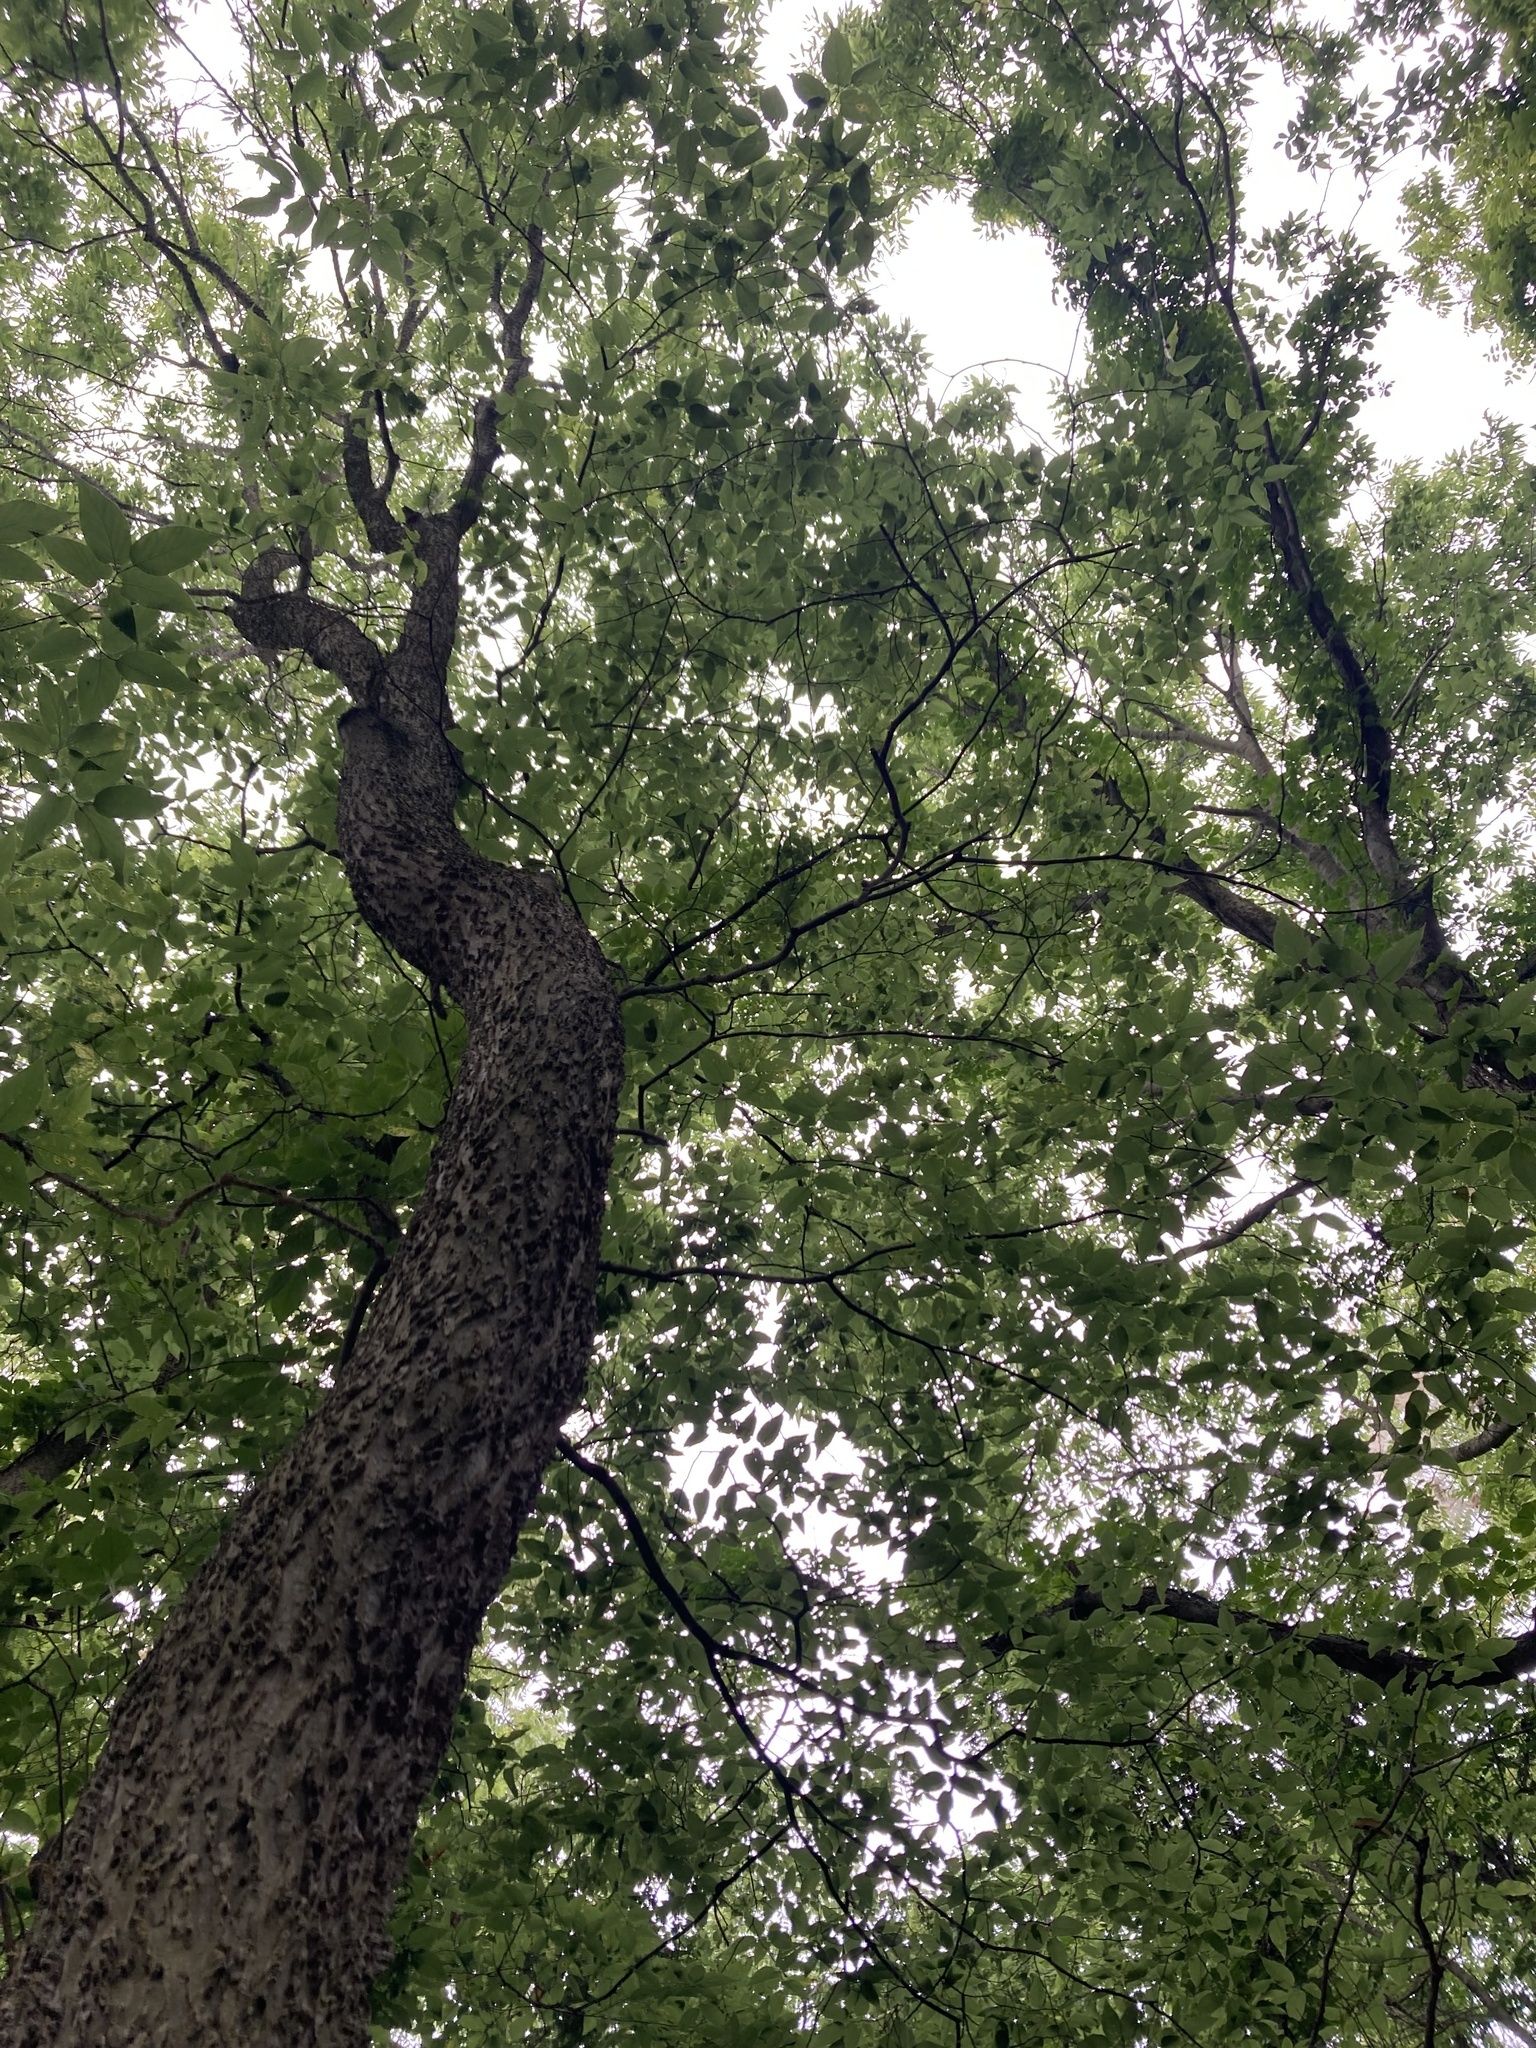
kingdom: Plantae
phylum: Tracheophyta
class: Magnoliopsida
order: Rosales
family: Cannabaceae
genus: Celtis
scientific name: Celtis occidentalis
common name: Common hackberry
